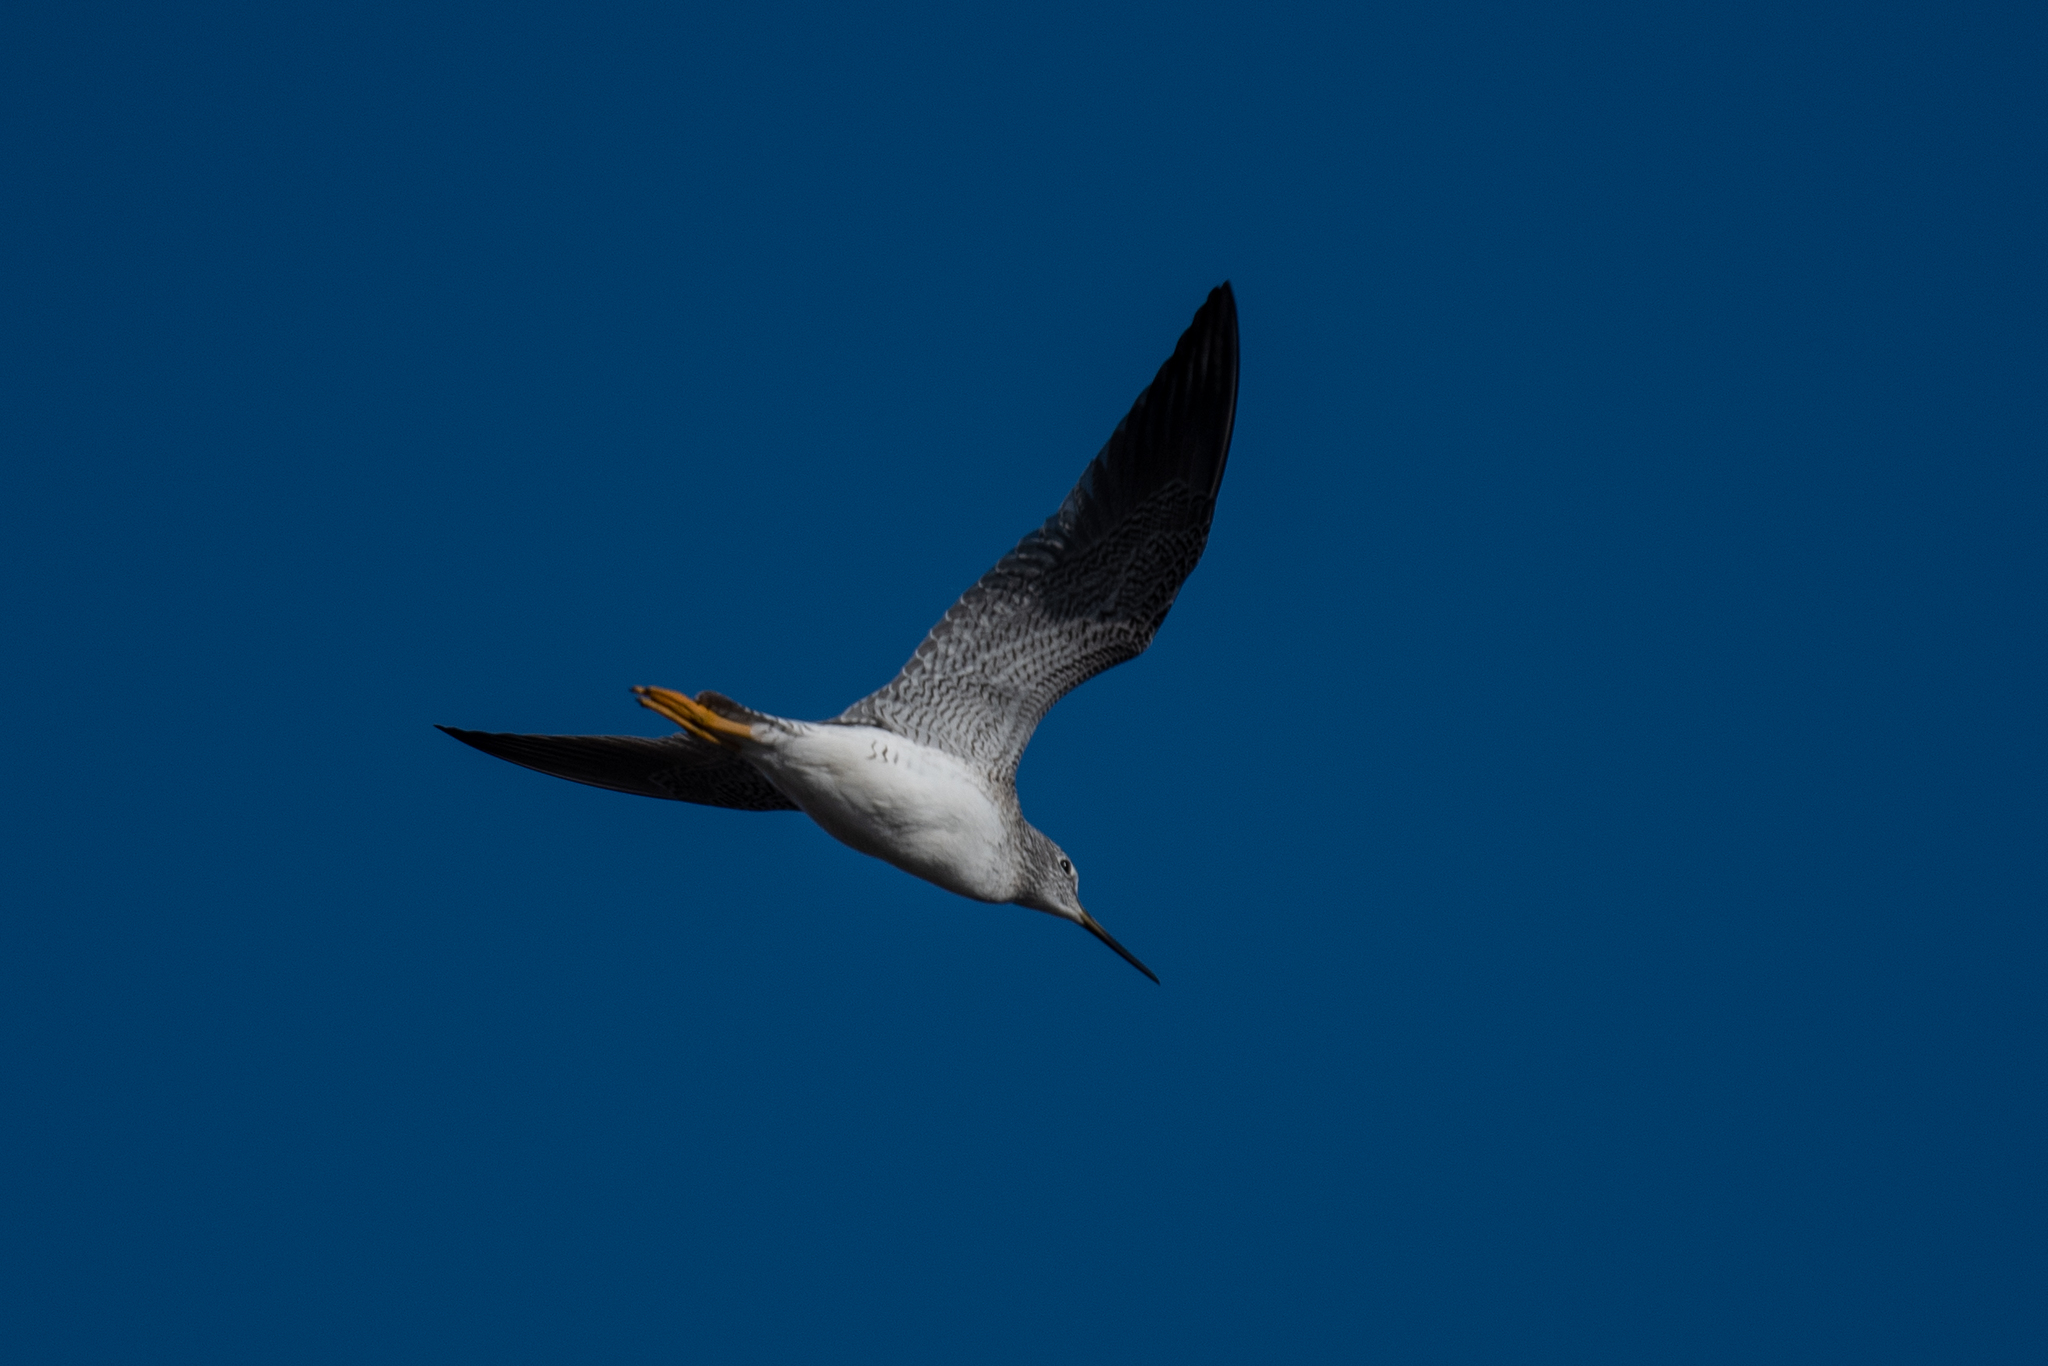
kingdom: Animalia
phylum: Chordata
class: Aves
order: Charadriiformes
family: Scolopacidae
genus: Tringa
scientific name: Tringa melanoleuca
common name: Greater yellowlegs
